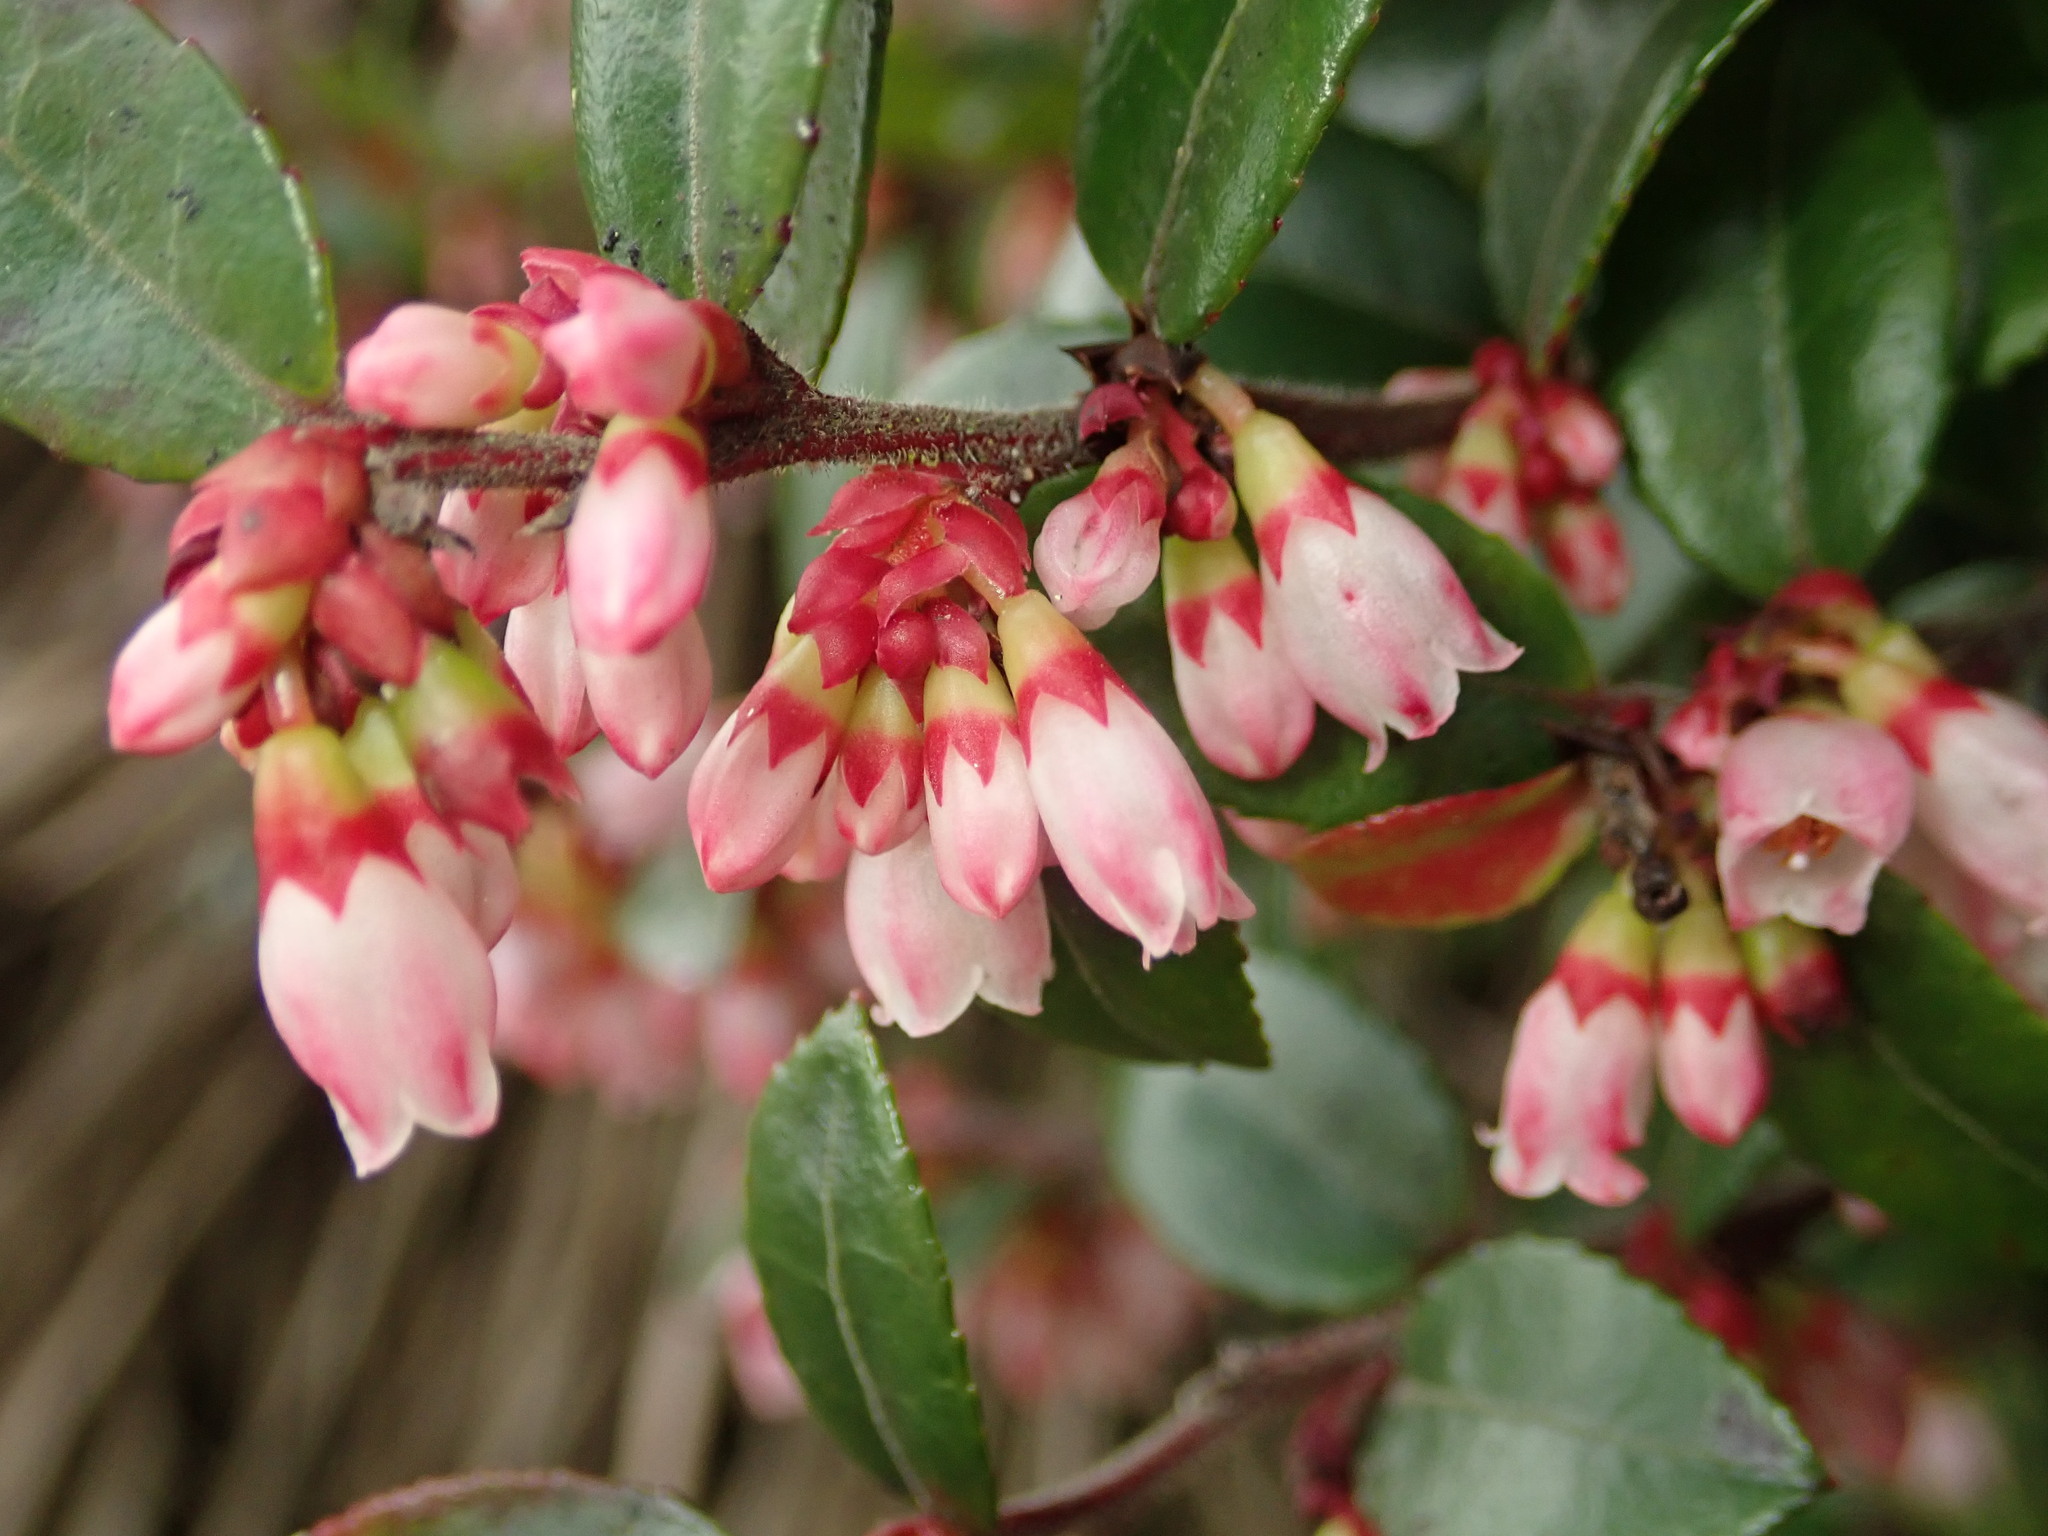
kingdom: Plantae
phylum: Tracheophyta
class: Magnoliopsida
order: Ericales
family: Ericaceae
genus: Vaccinium
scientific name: Vaccinium ovatum
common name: California-huckleberry
